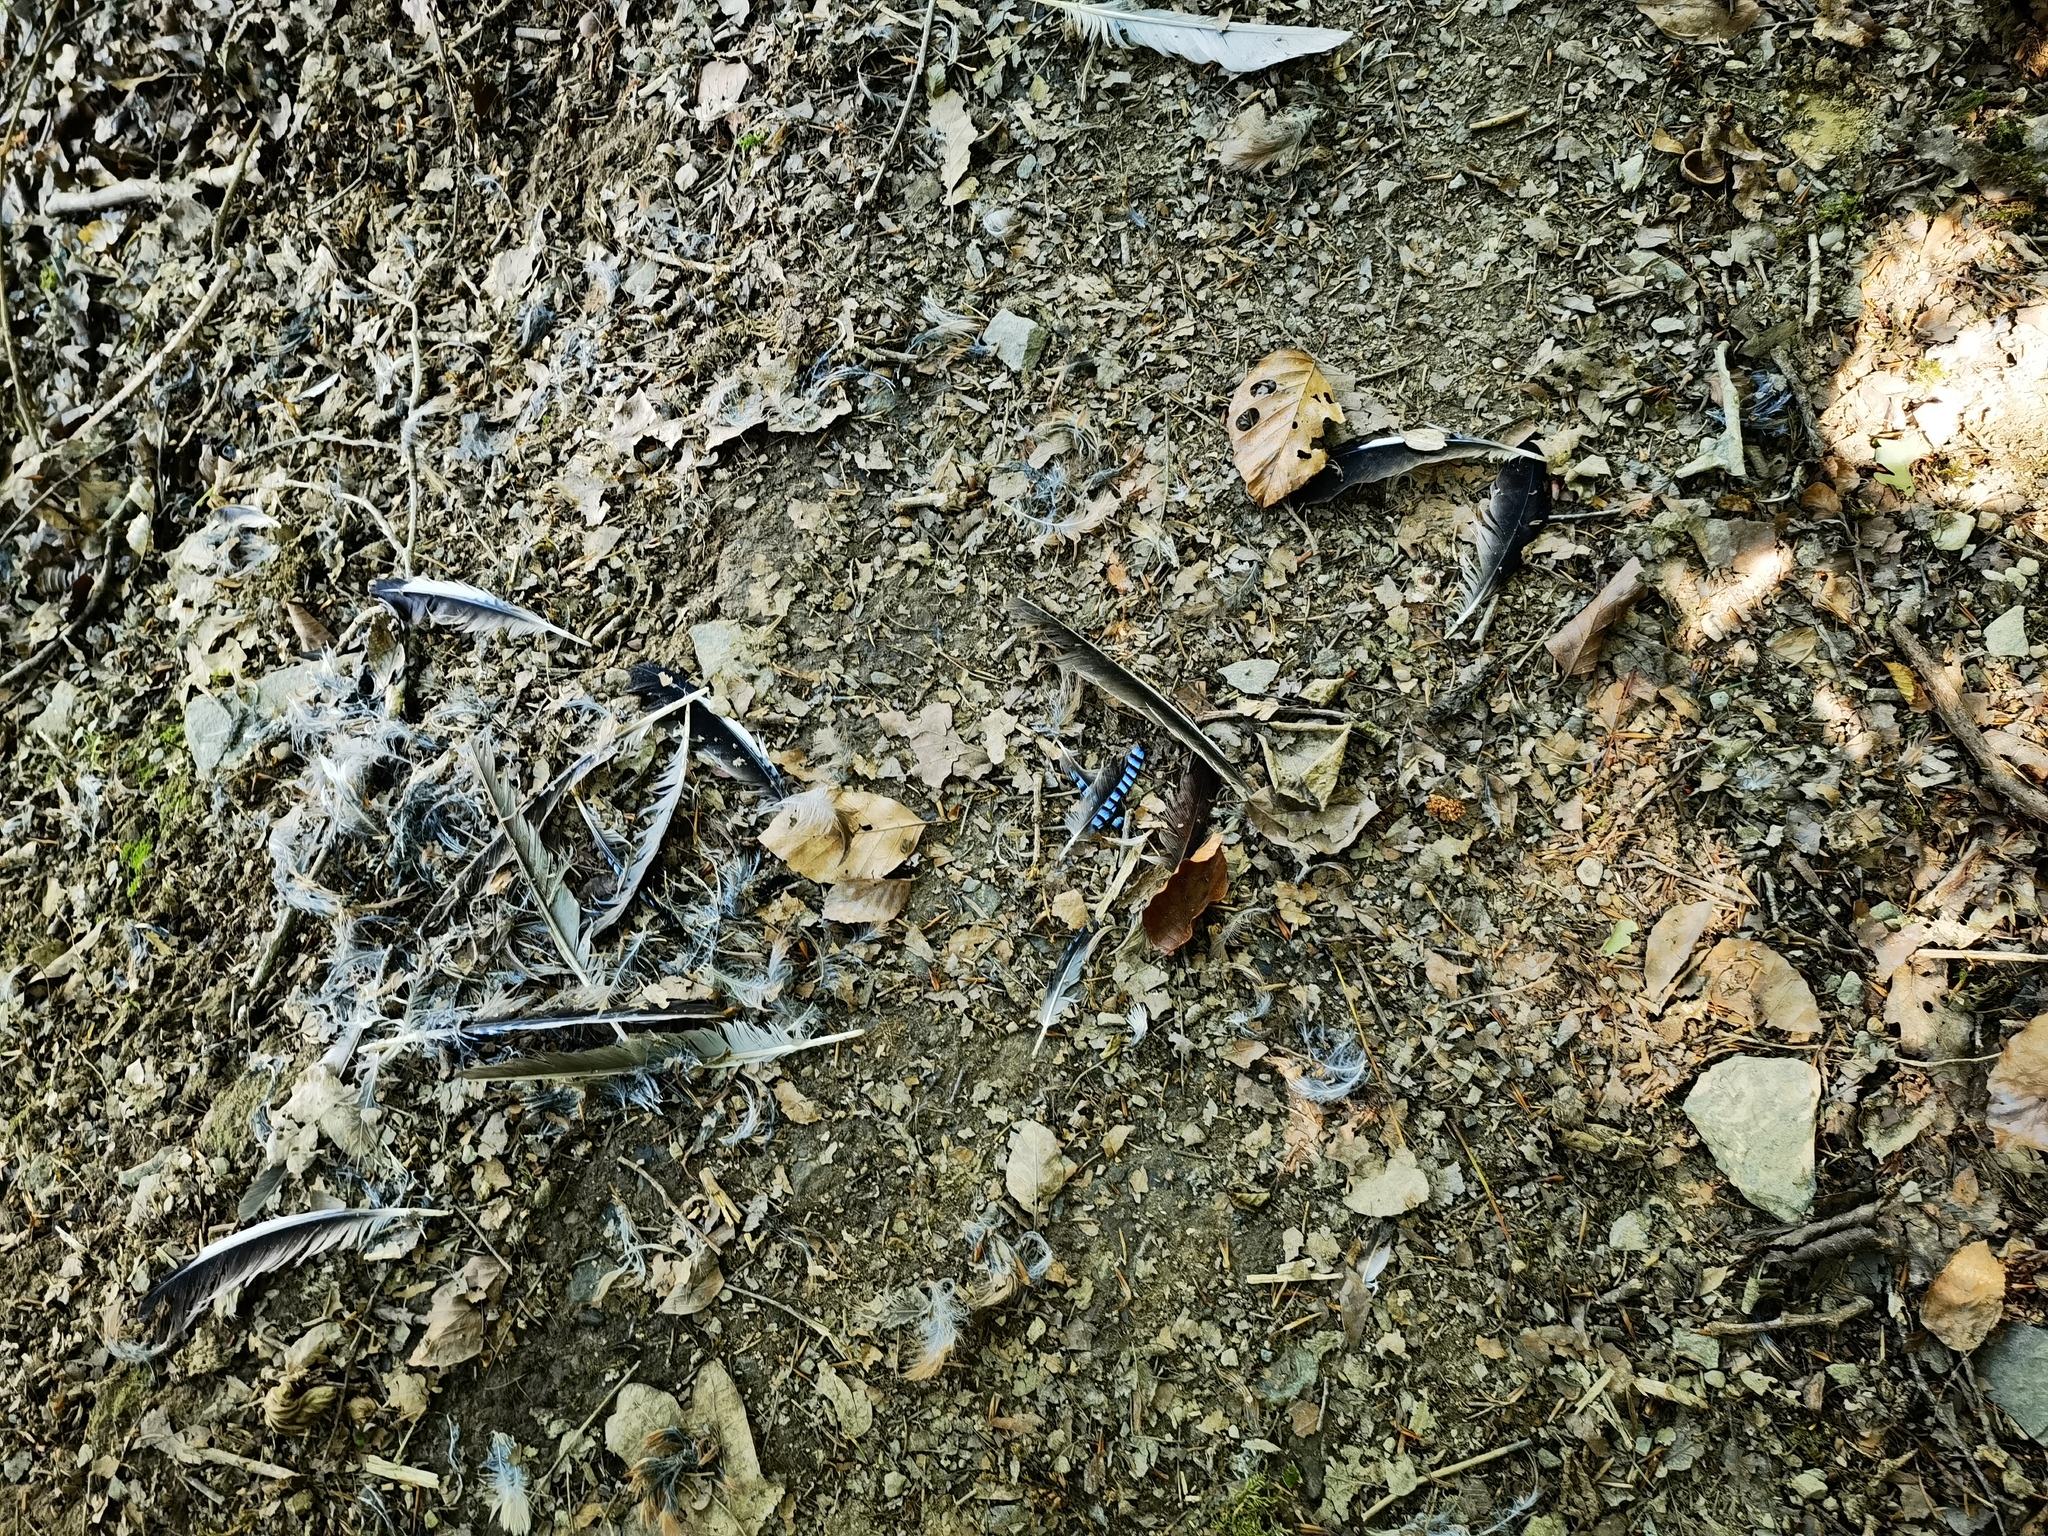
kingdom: Animalia
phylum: Chordata
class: Aves
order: Passeriformes
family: Corvidae
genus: Garrulus
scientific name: Garrulus glandarius
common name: Eurasian jay
